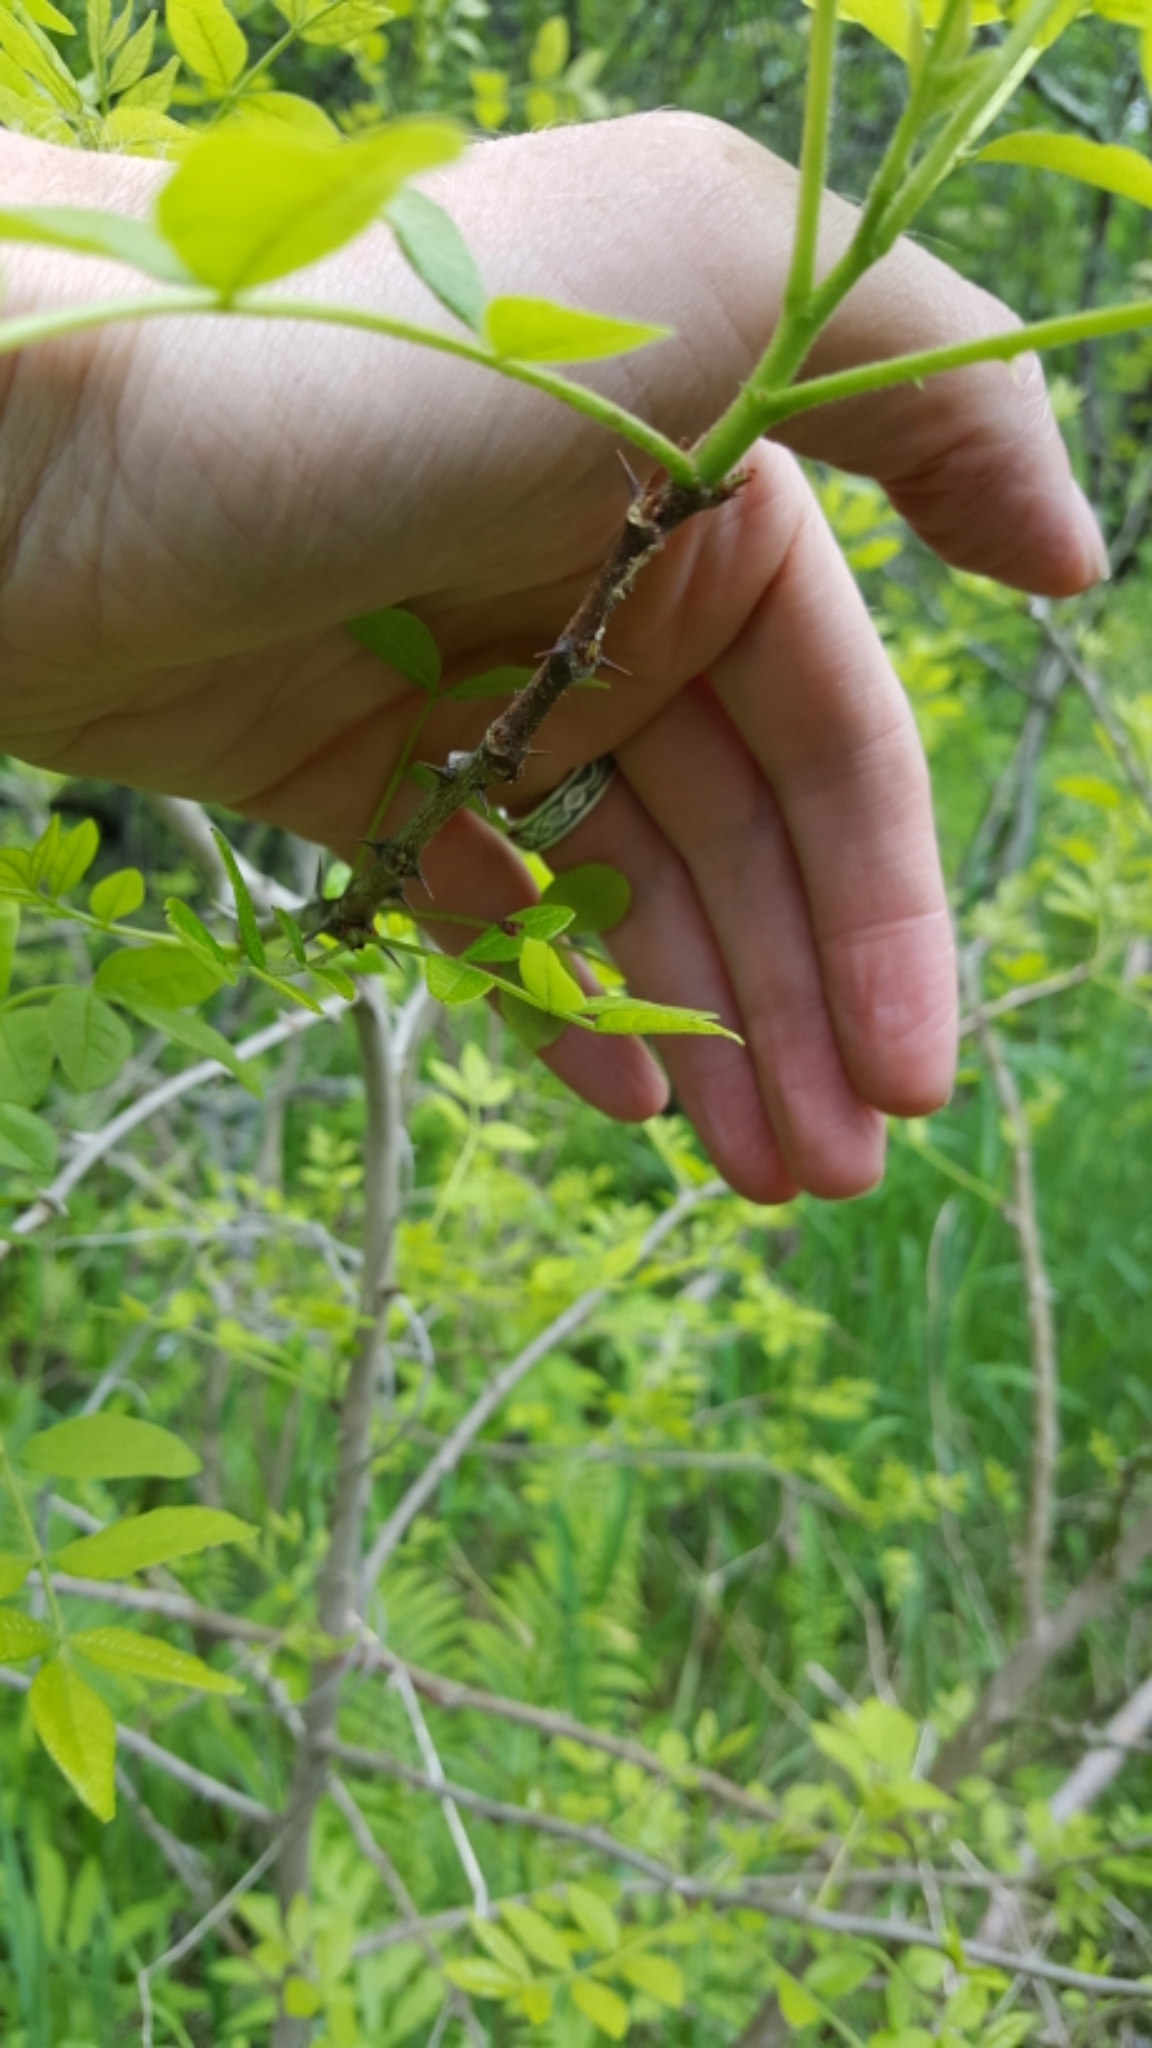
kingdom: Plantae
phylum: Tracheophyta
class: Magnoliopsida
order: Sapindales
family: Rutaceae
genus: Zanthoxylum
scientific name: Zanthoxylum americanum
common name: Northern prickly-ash
